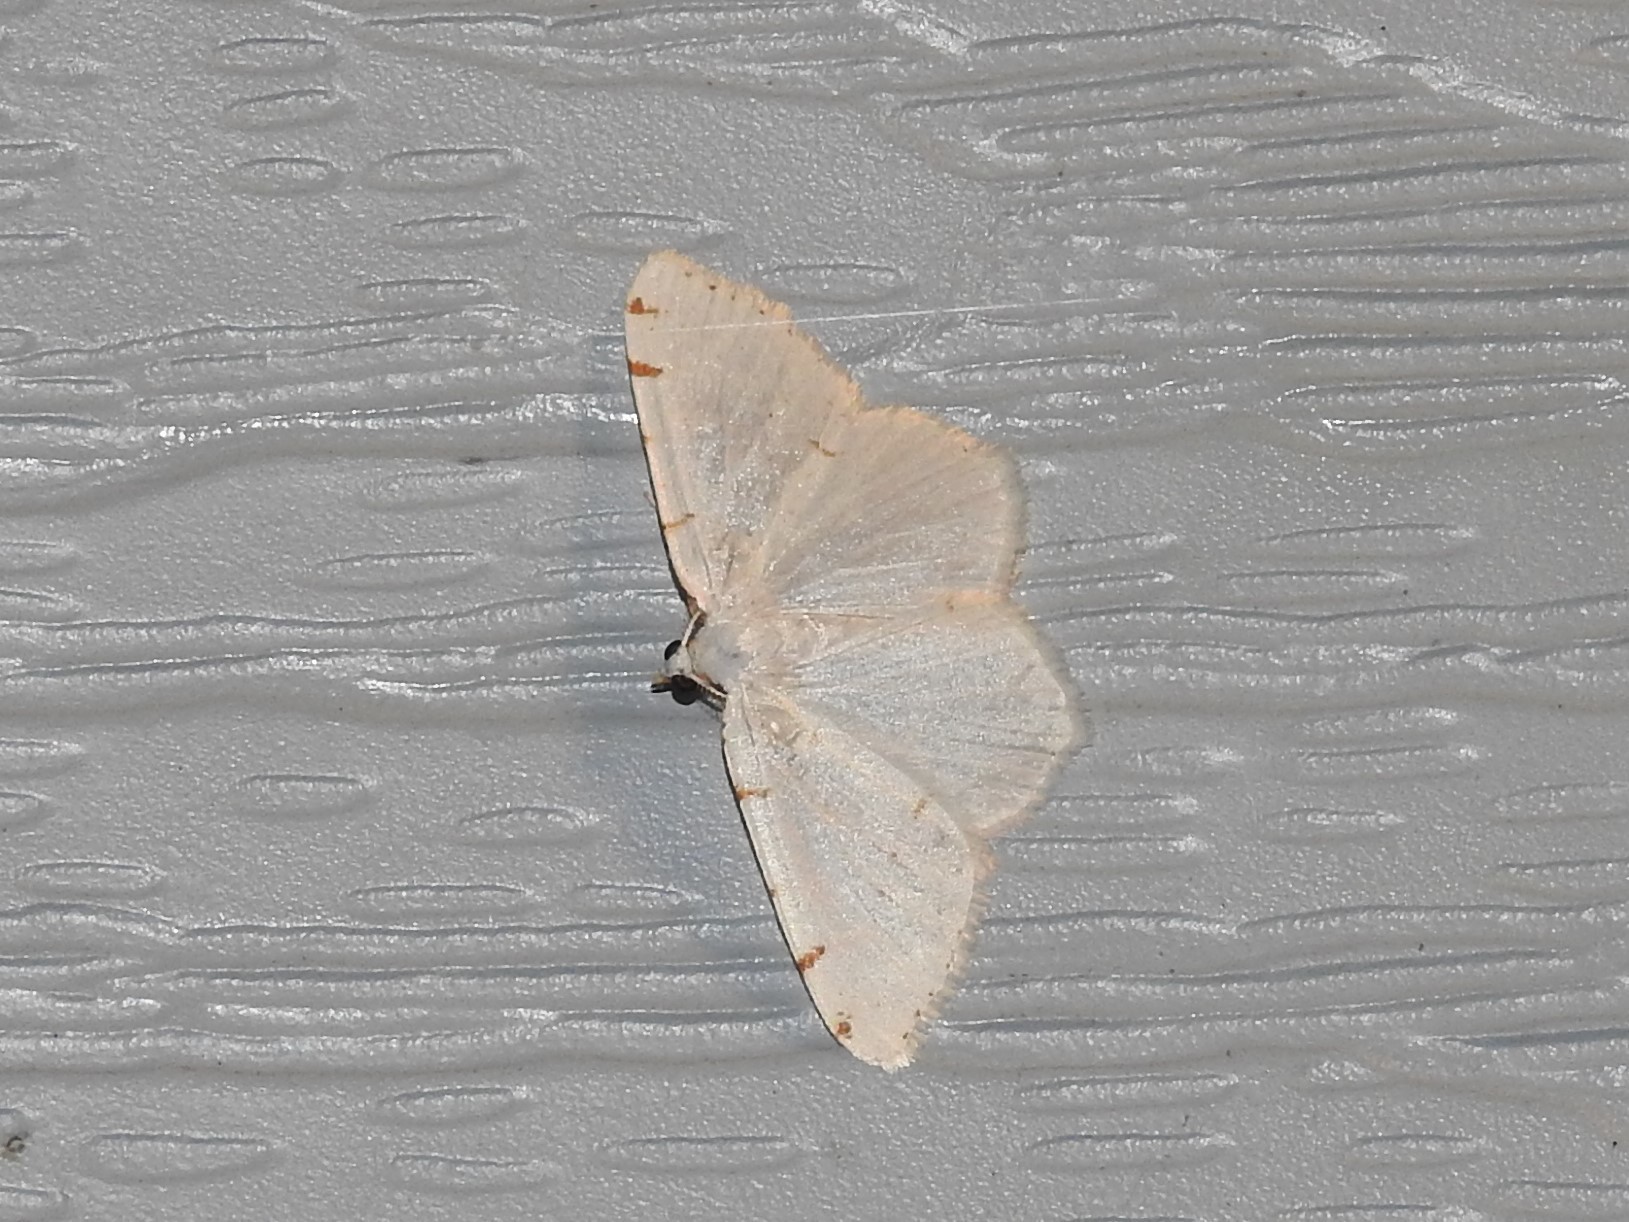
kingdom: Animalia
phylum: Arthropoda
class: Insecta
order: Lepidoptera
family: Geometridae
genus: Macaria
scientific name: Macaria pustularia
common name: Lesser maple spanworm moth
